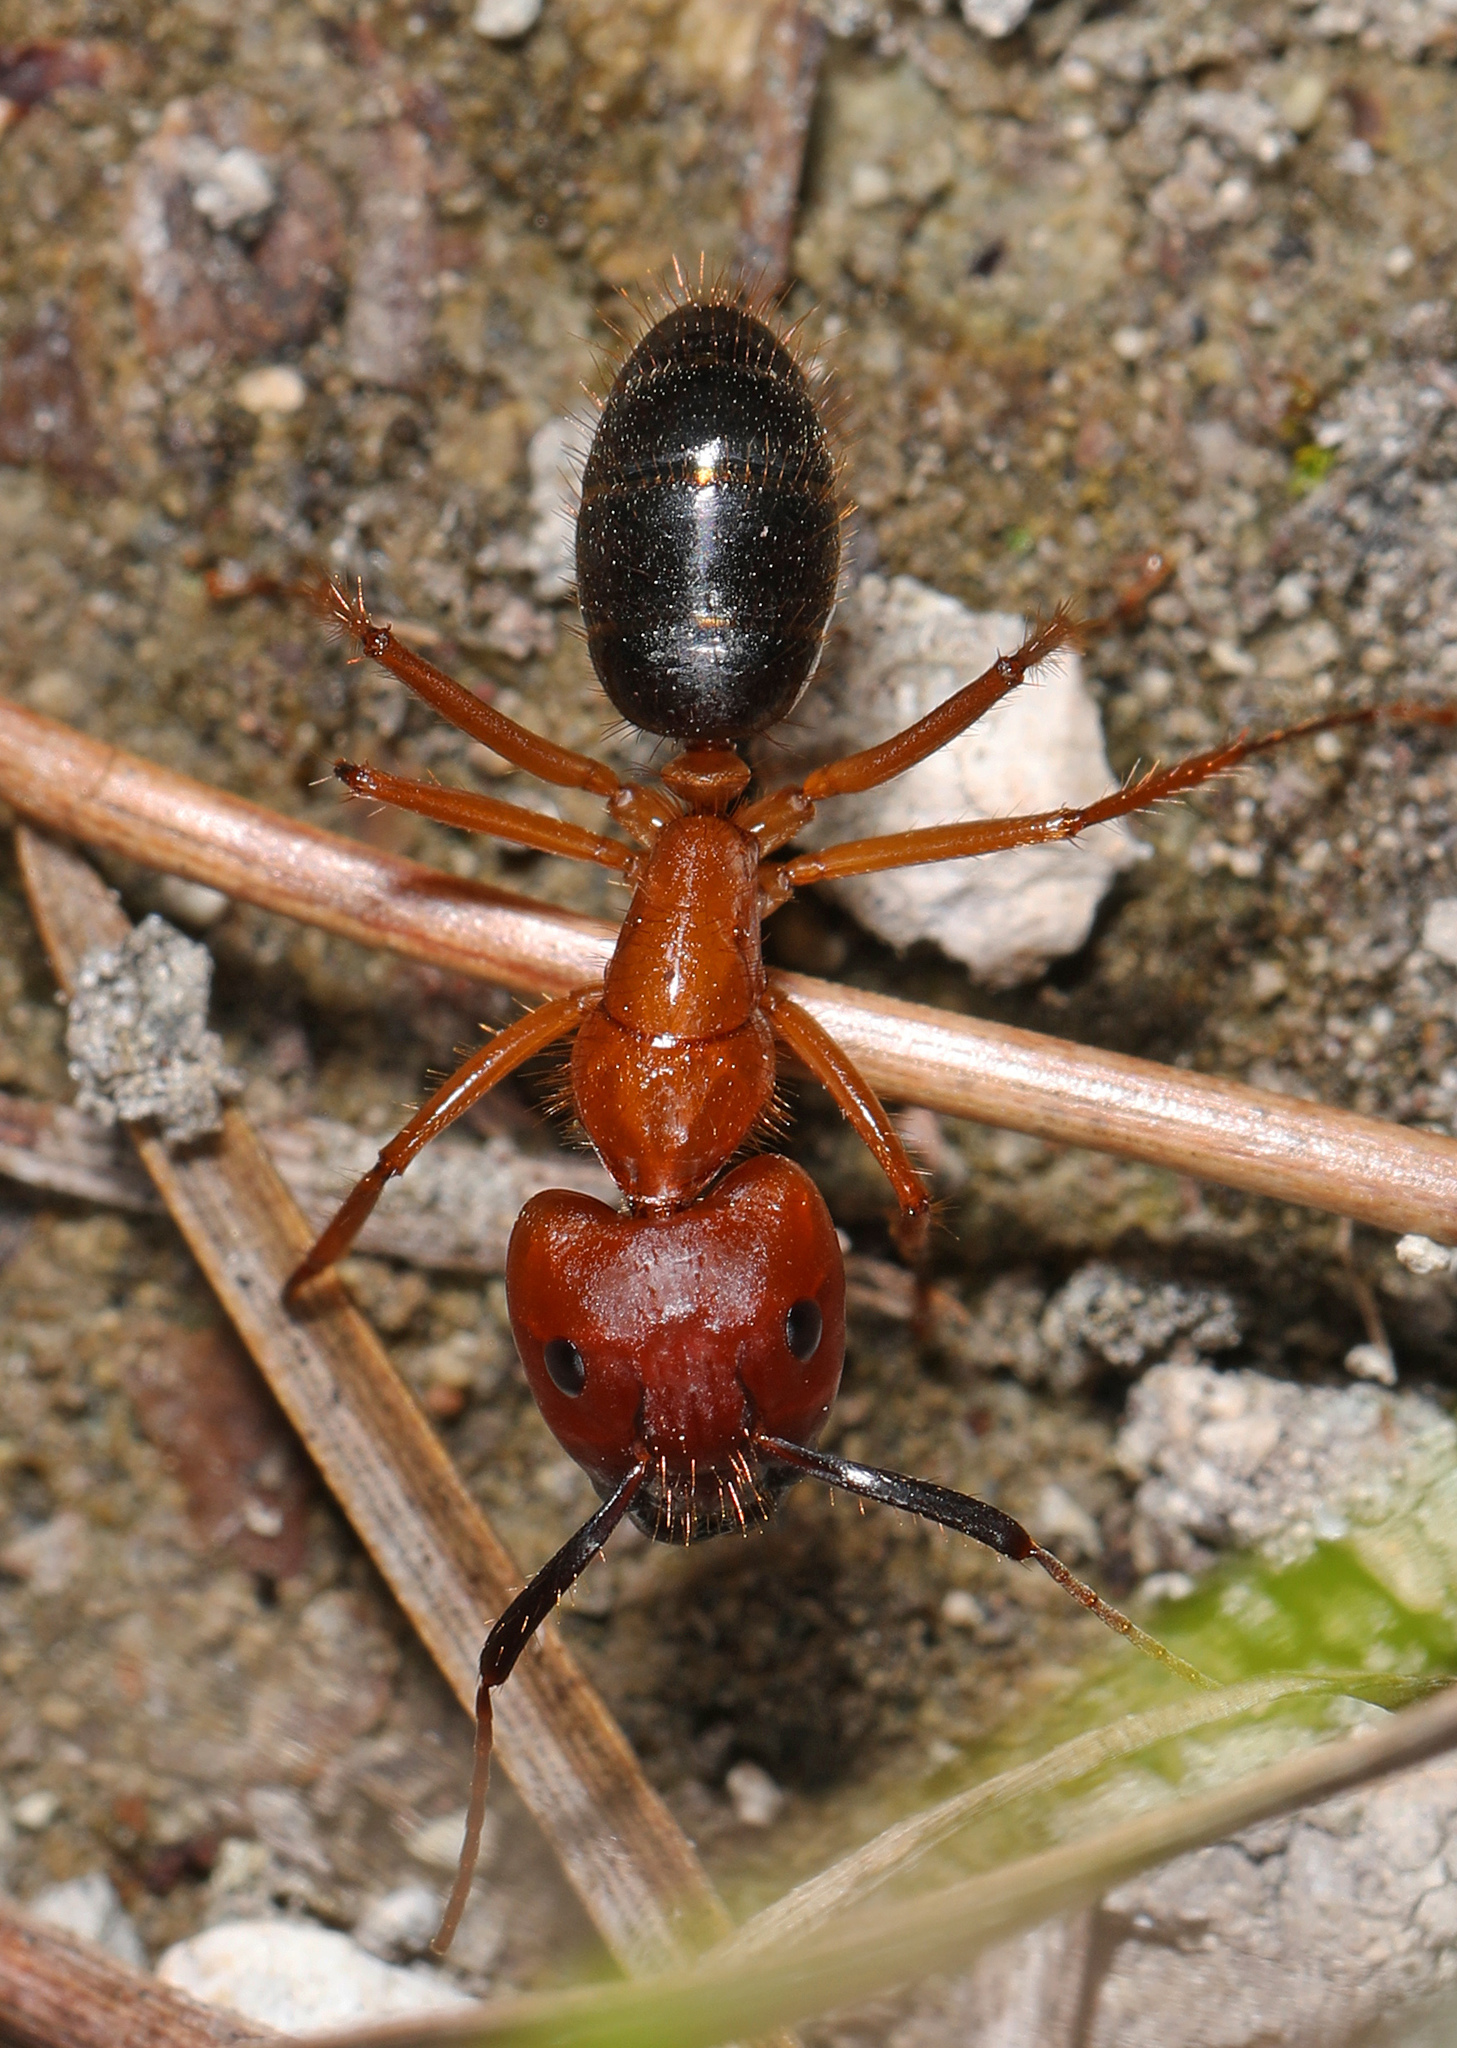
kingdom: Animalia
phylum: Arthropoda
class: Insecta
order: Hymenoptera
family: Formicidae
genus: Camponotus
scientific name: Camponotus floridanus
